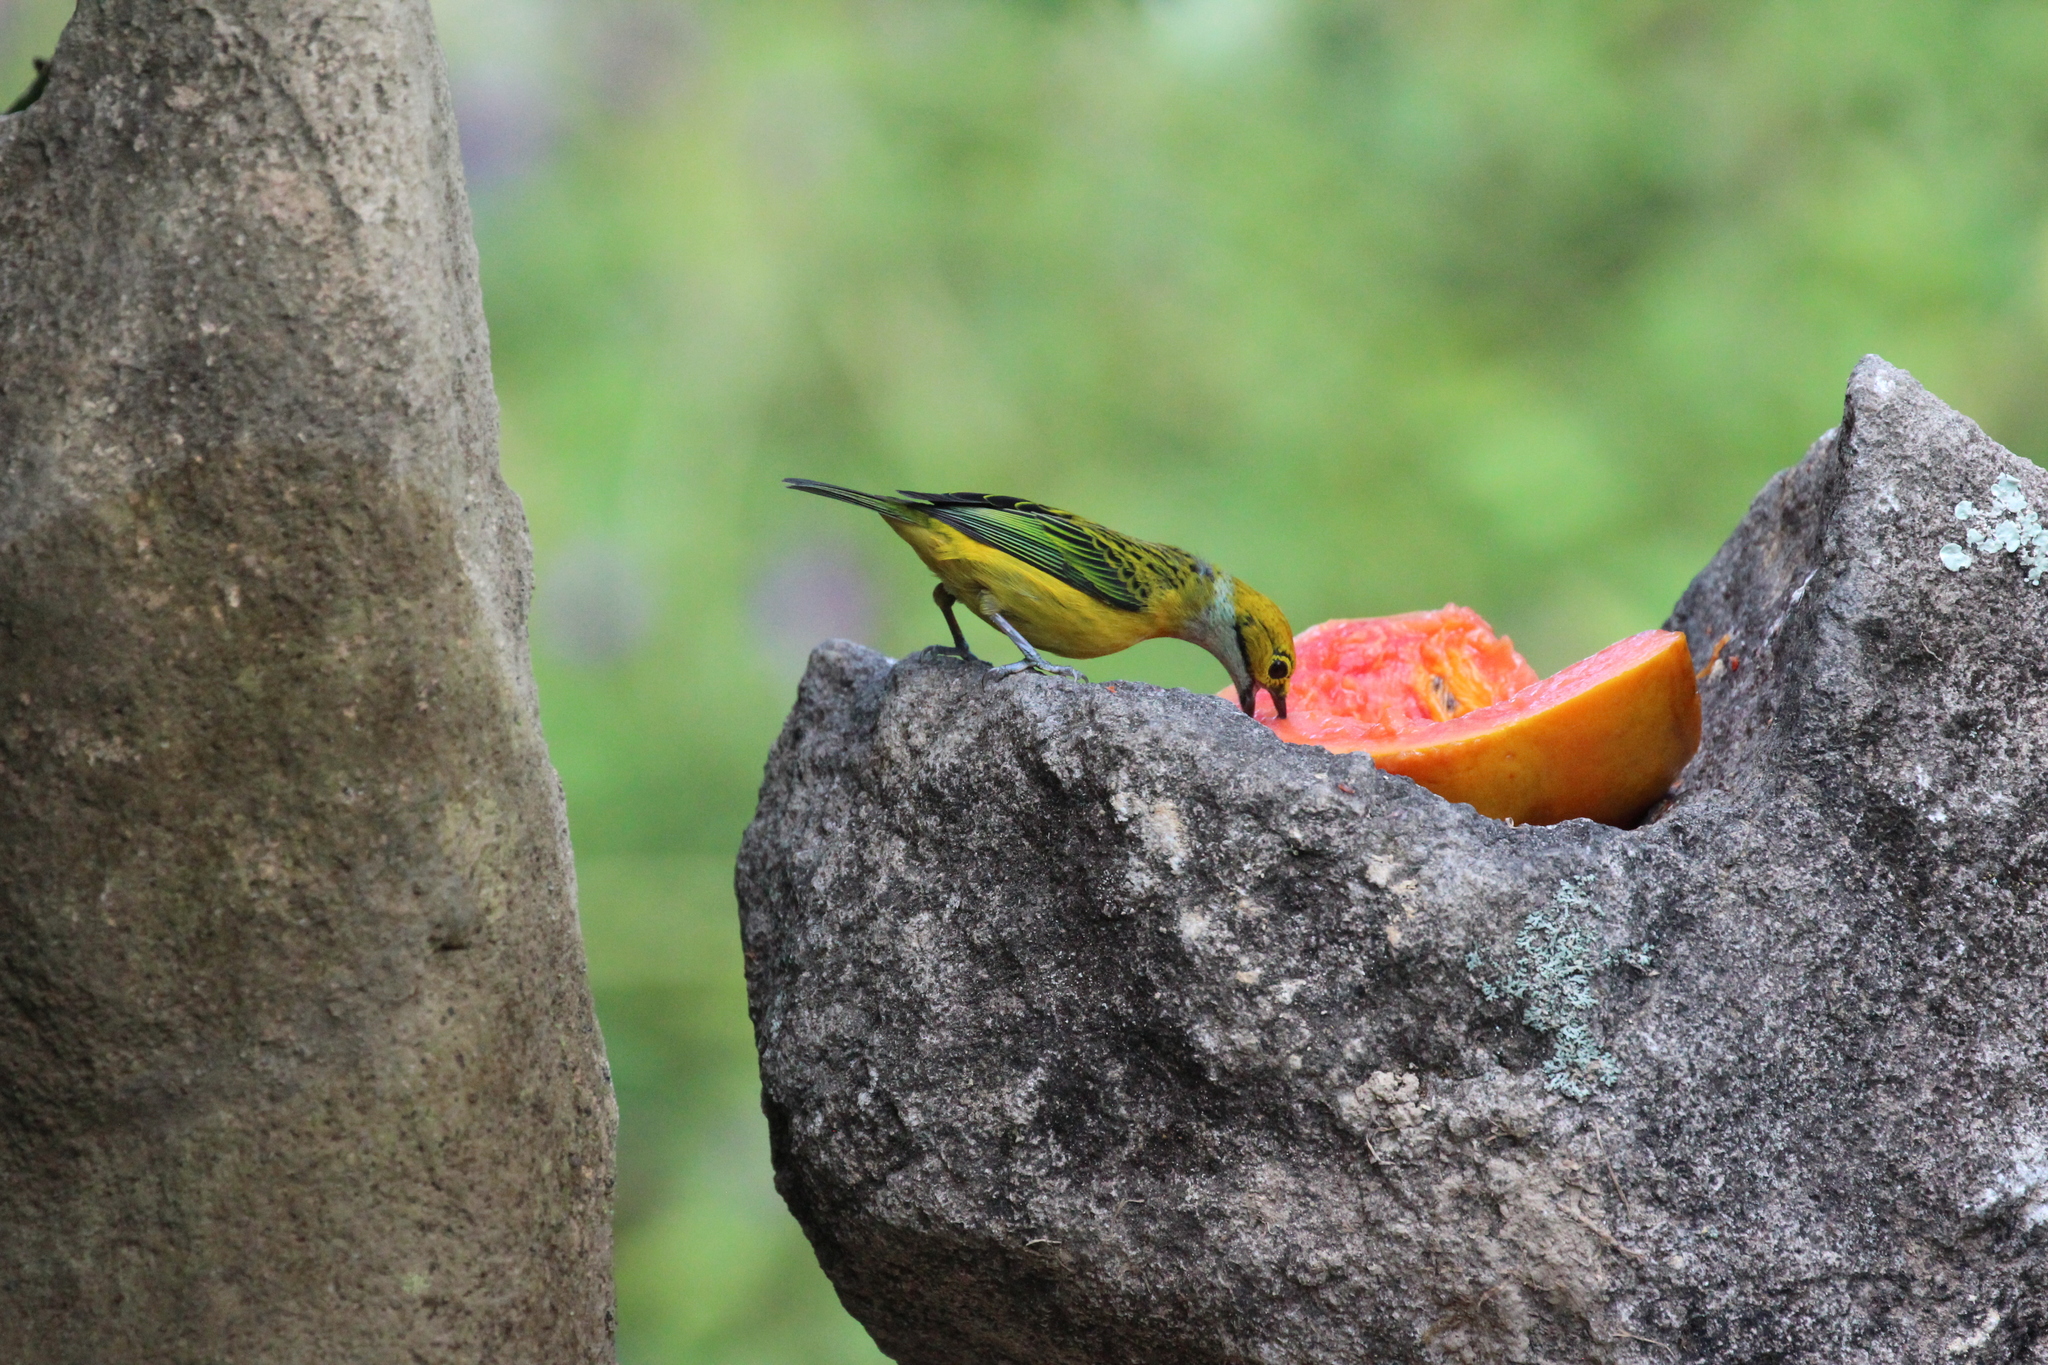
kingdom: Animalia
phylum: Chordata
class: Aves
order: Passeriformes
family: Thraupidae
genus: Tangara
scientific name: Tangara icterocephala
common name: Silver-throated tanager
